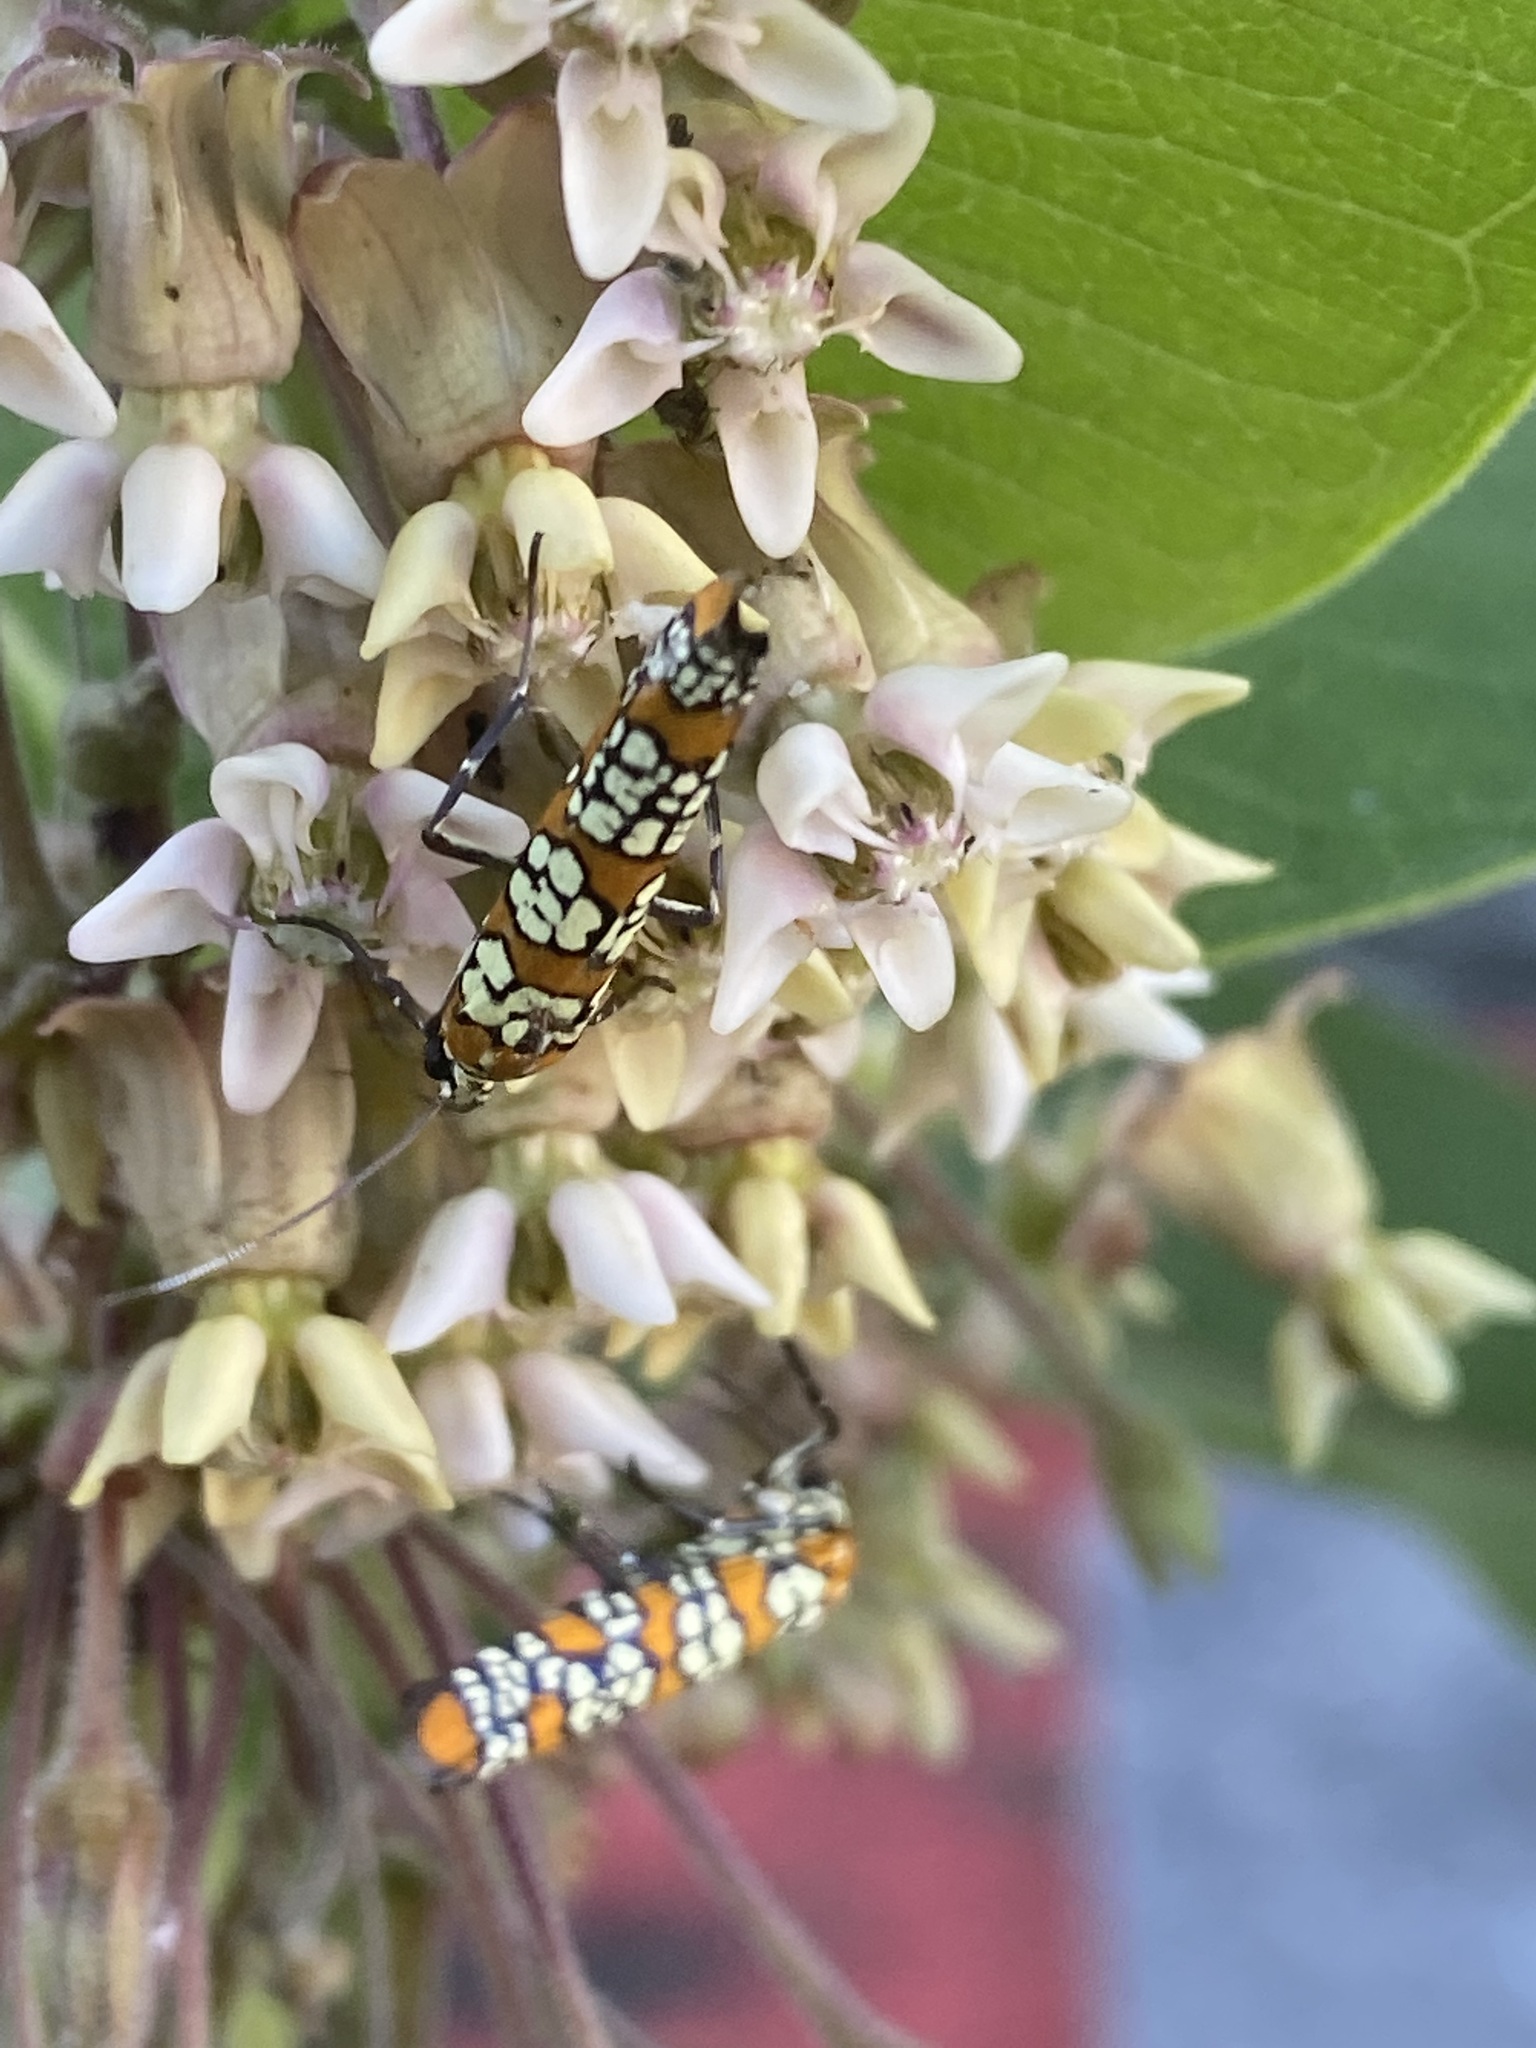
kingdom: Animalia
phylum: Arthropoda
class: Insecta
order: Lepidoptera
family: Attevidae
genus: Atteva
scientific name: Atteva punctella
